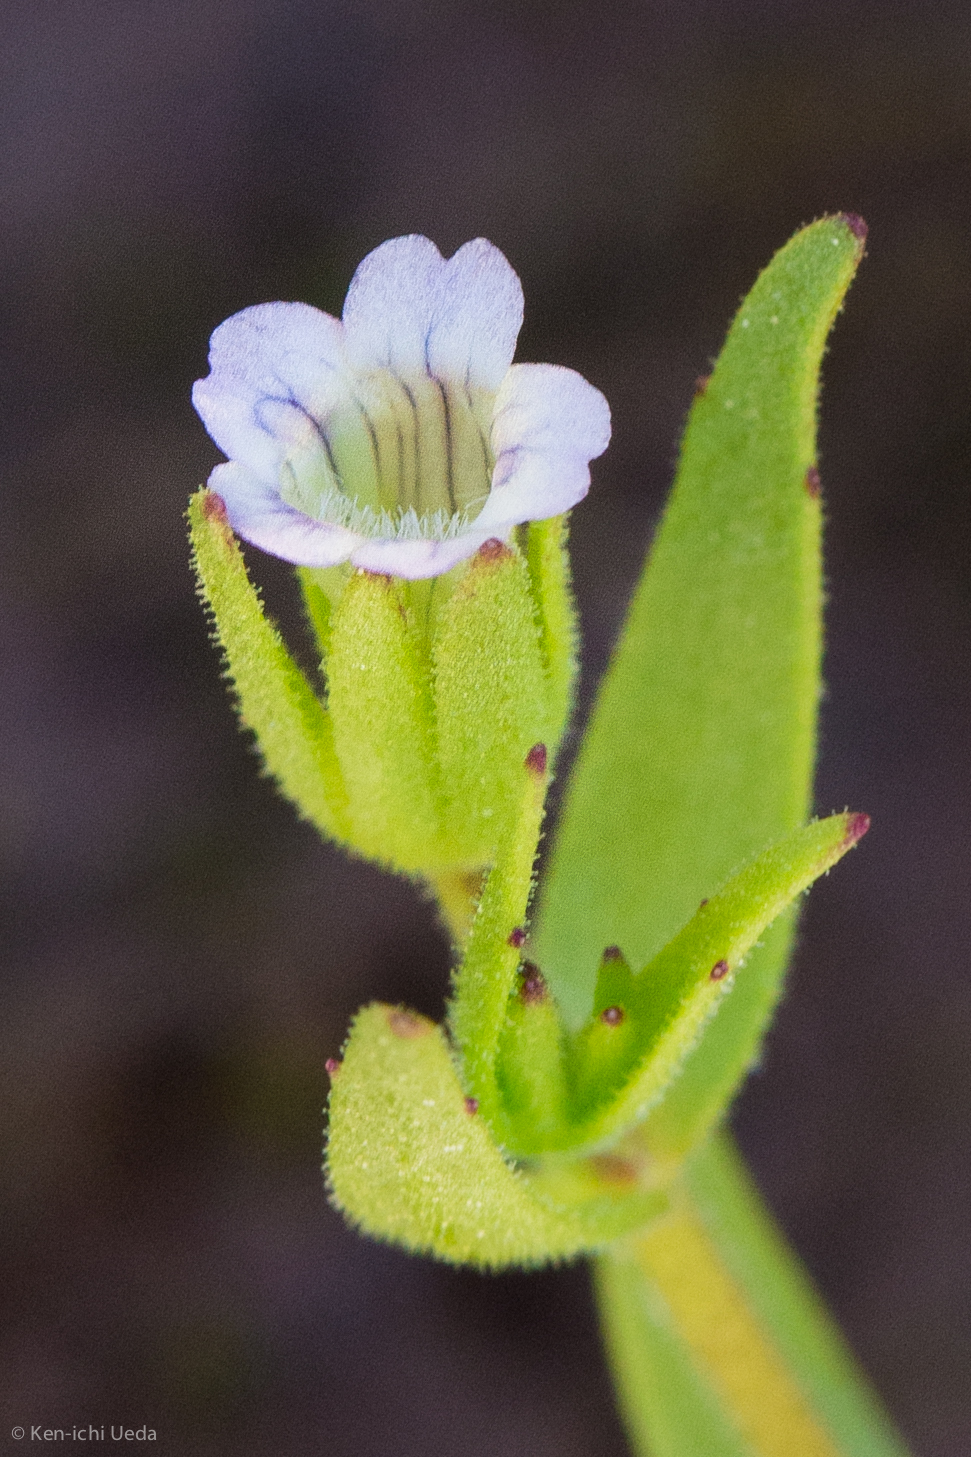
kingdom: Plantae
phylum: Tracheophyta
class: Magnoliopsida
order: Lamiales
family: Plantaginaceae
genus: Gratiola
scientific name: Gratiola ebracteata
